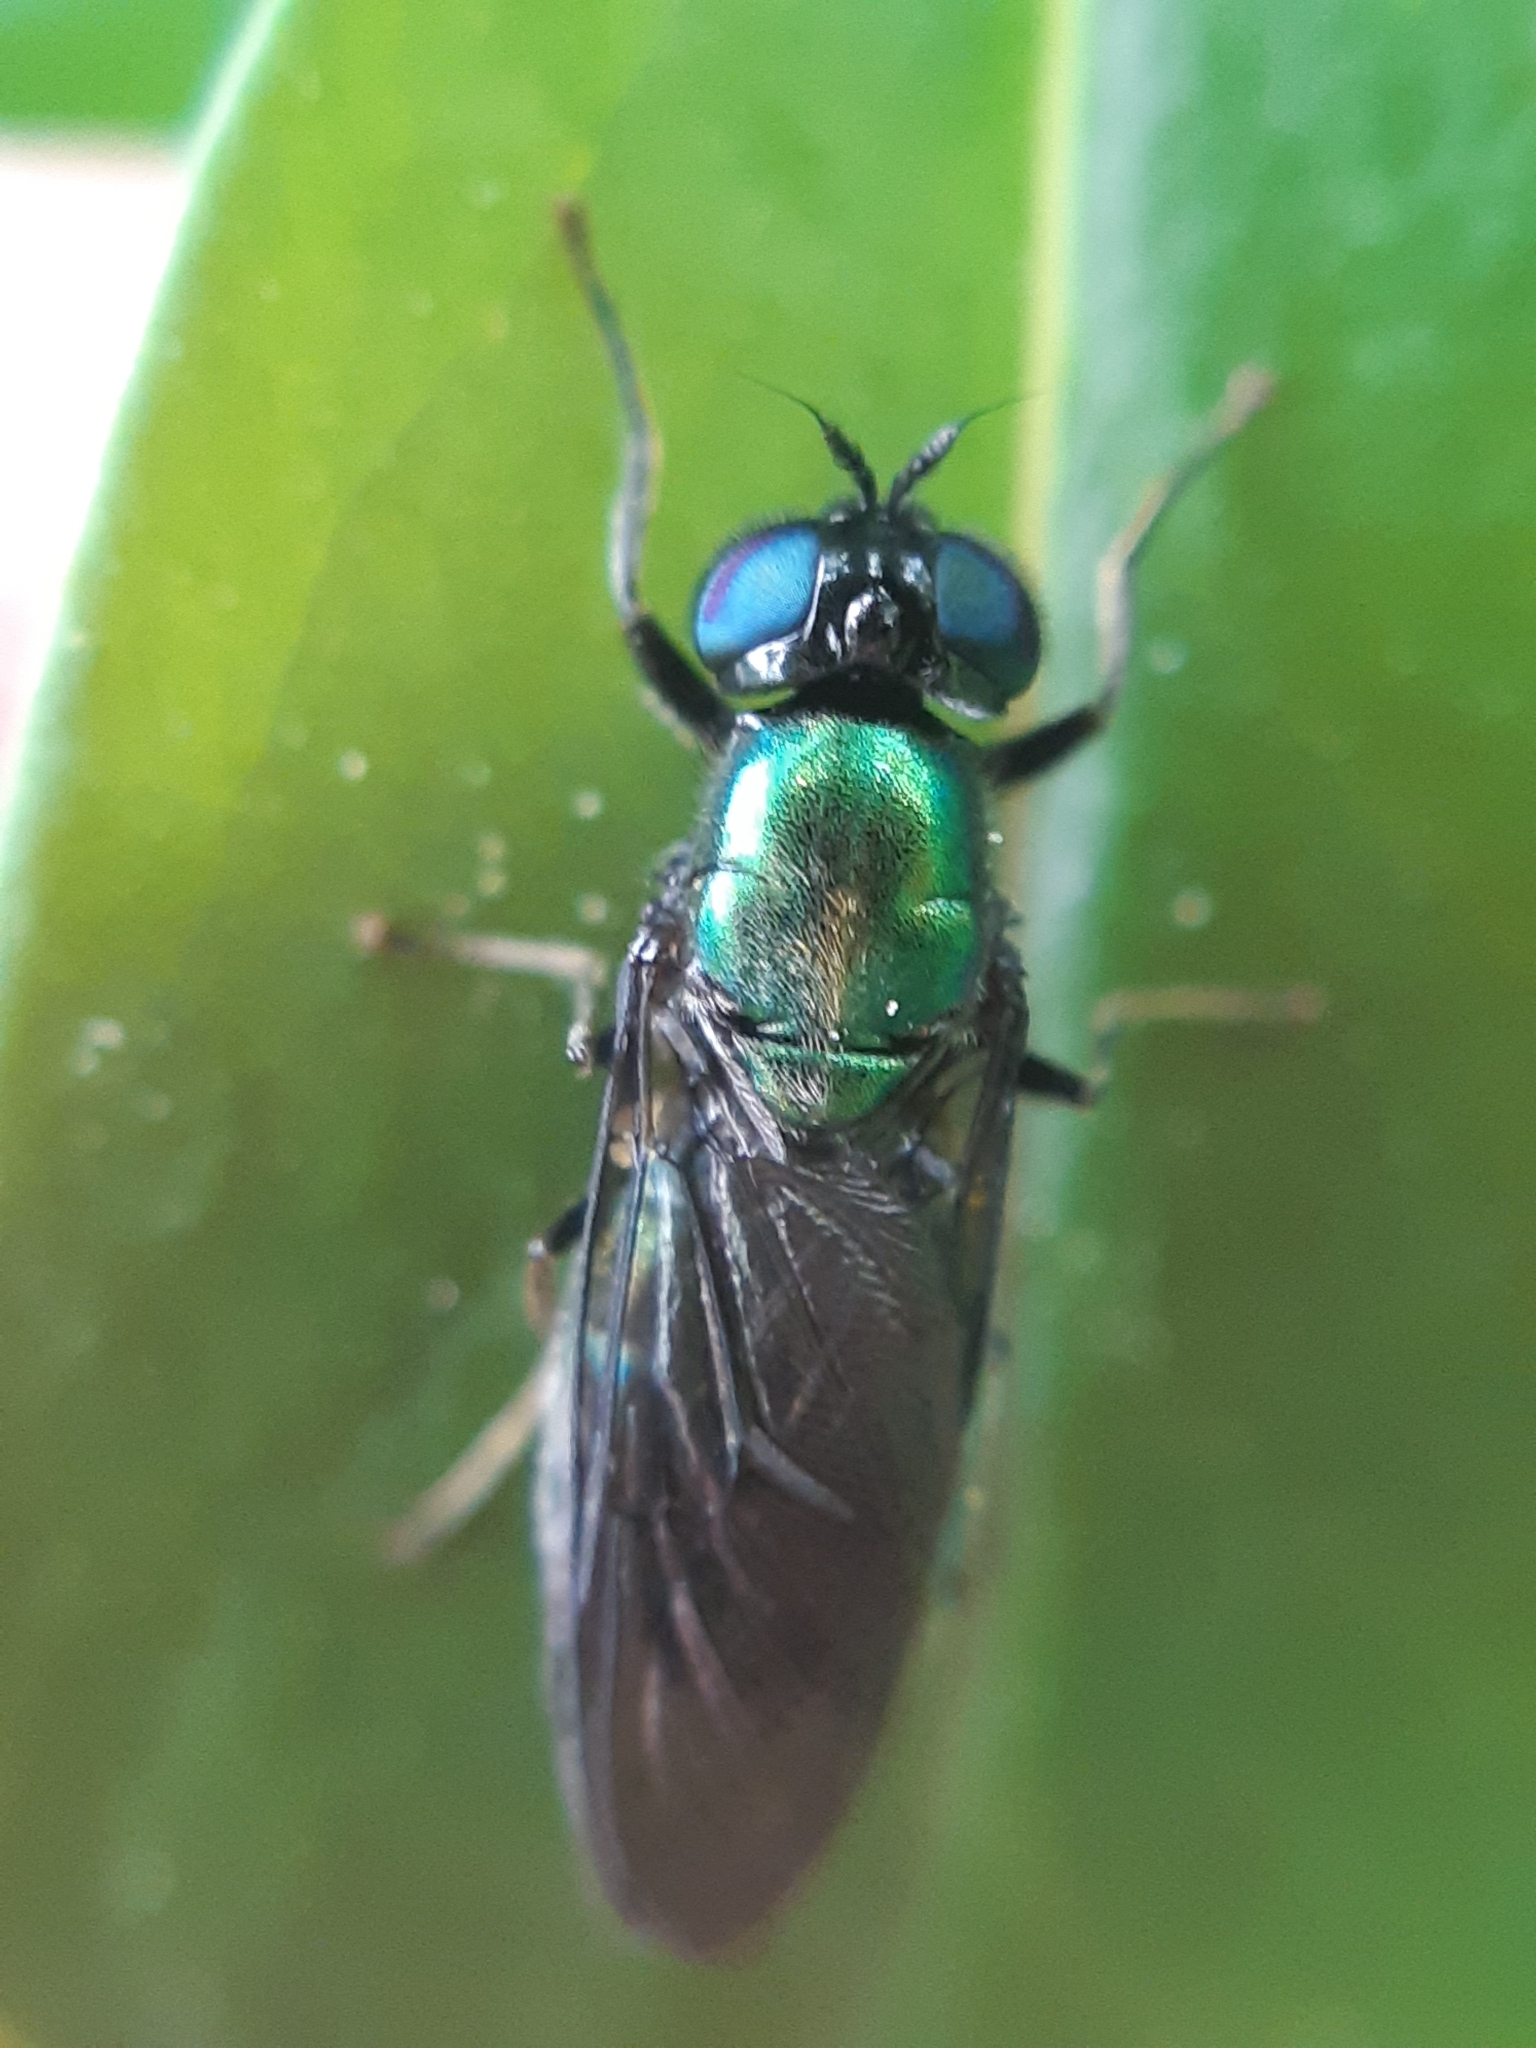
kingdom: Animalia
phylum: Arthropoda
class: Insecta
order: Diptera
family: Stratiomyidae
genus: Chloromyia
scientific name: Chloromyia speciosa
